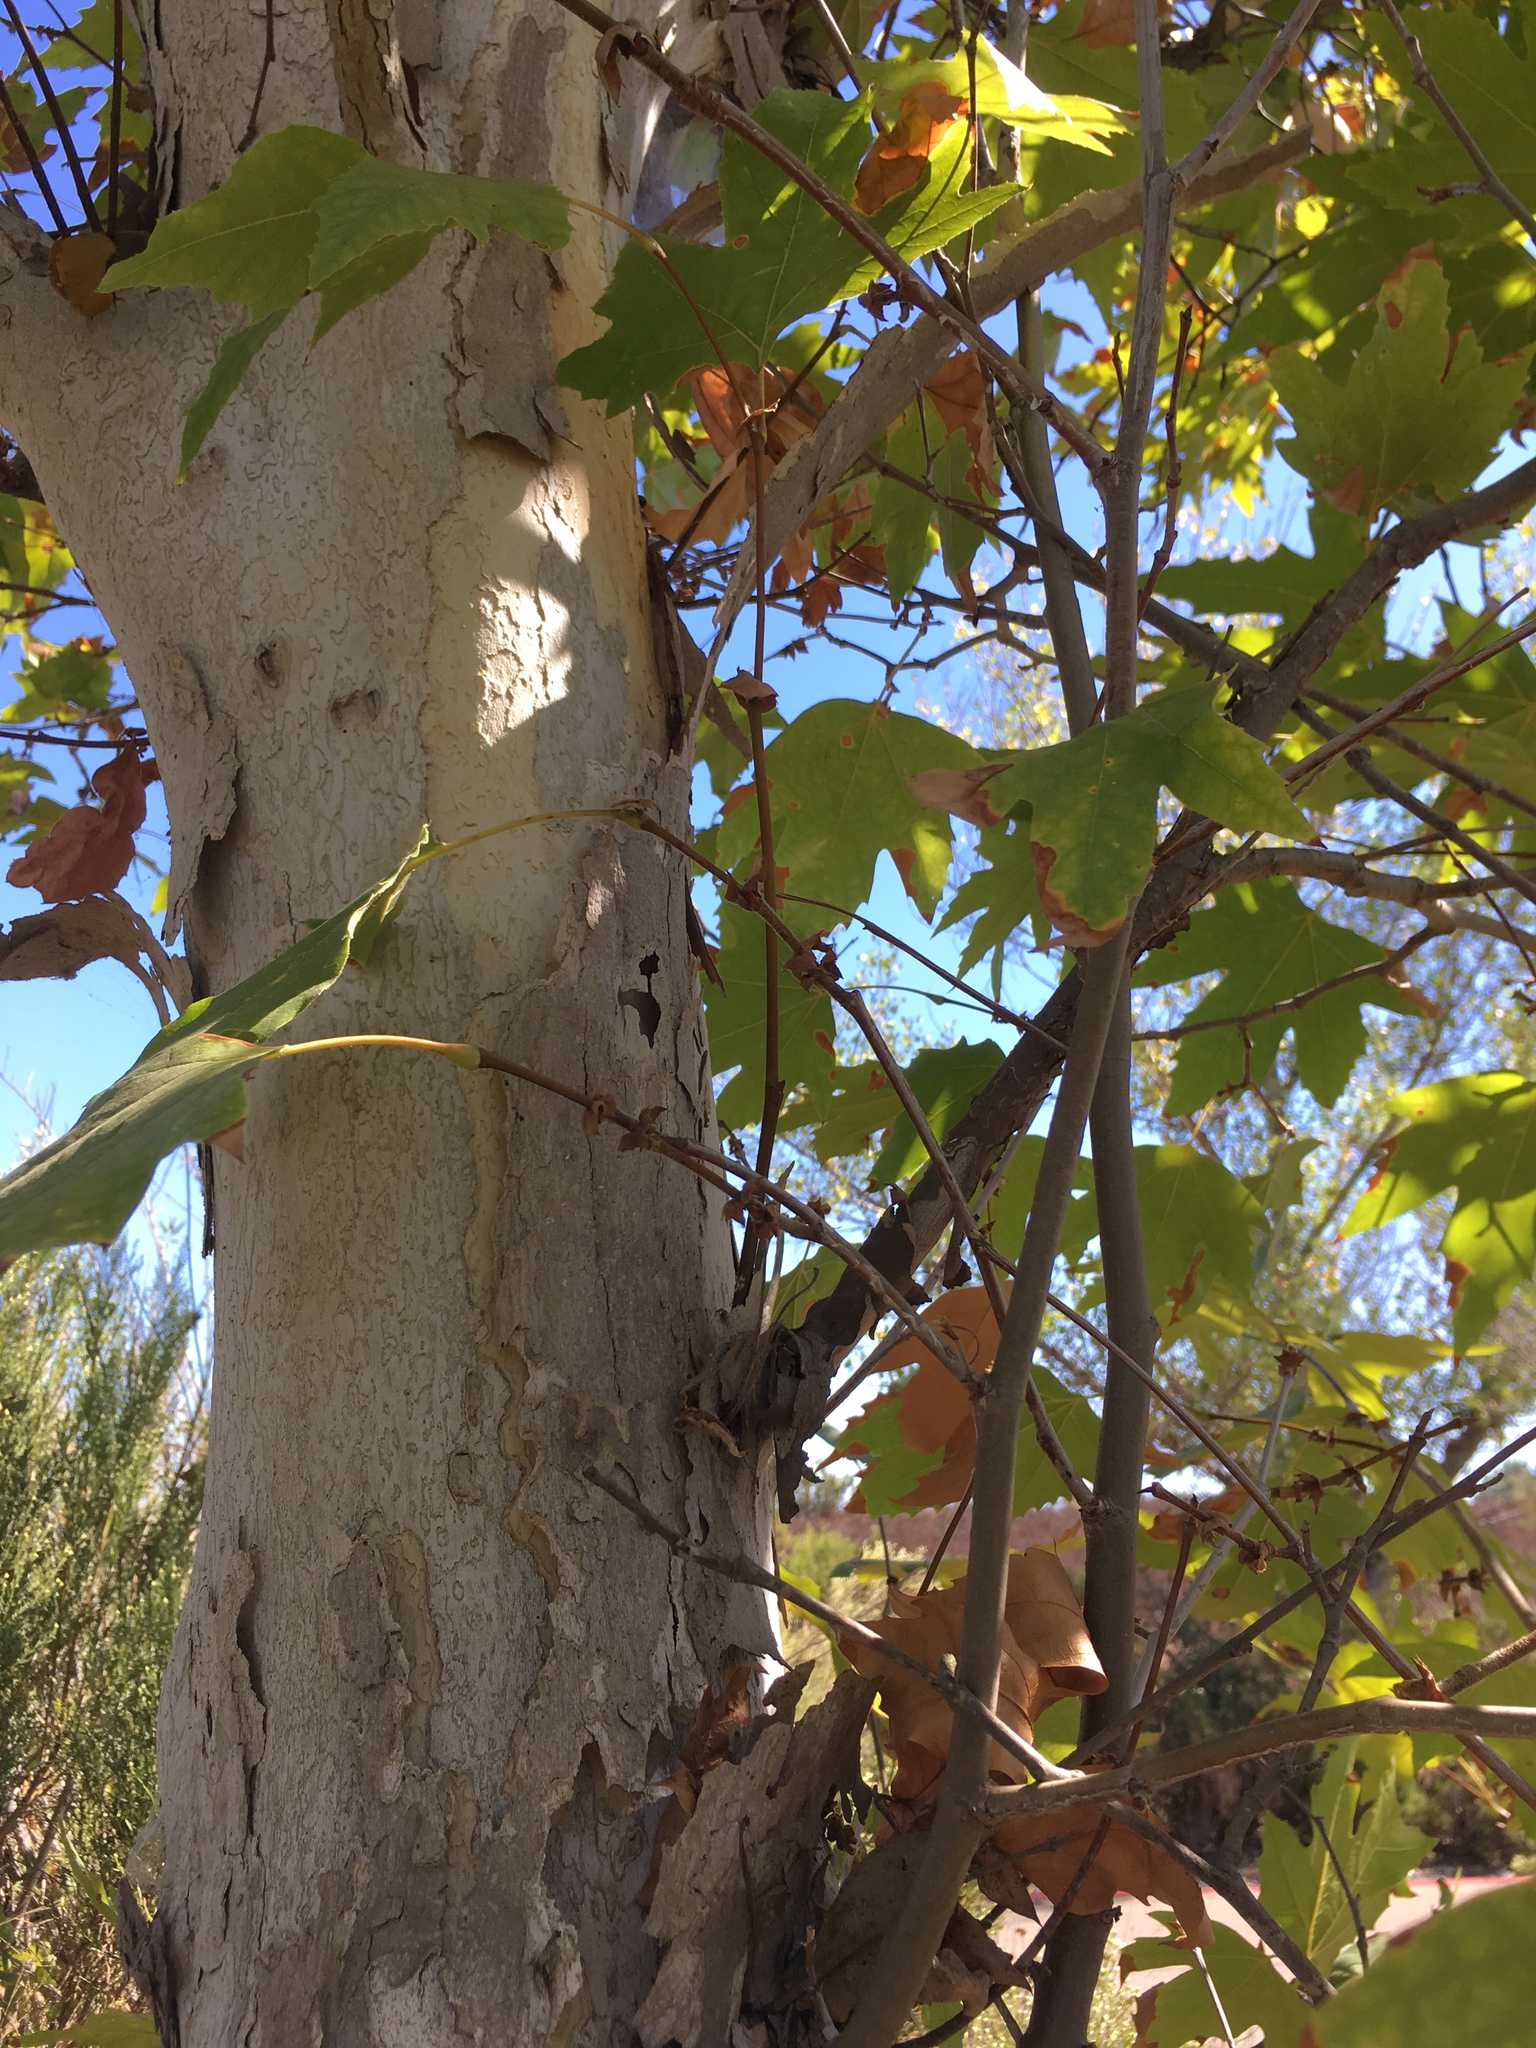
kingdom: Plantae
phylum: Tracheophyta
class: Magnoliopsida
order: Proteales
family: Platanaceae
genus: Platanus
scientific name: Platanus racemosa
